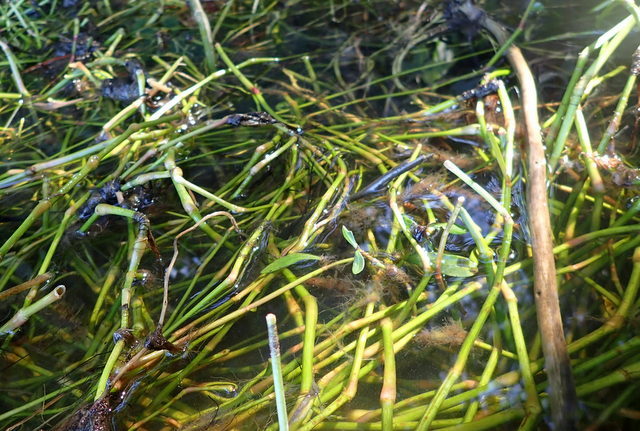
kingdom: Plantae
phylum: Tracheophyta
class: Magnoliopsida
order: Caryophyllales
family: Amaranthaceae
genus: Alternanthera
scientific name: Alternanthera philoxeroides
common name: Alligatorweed
